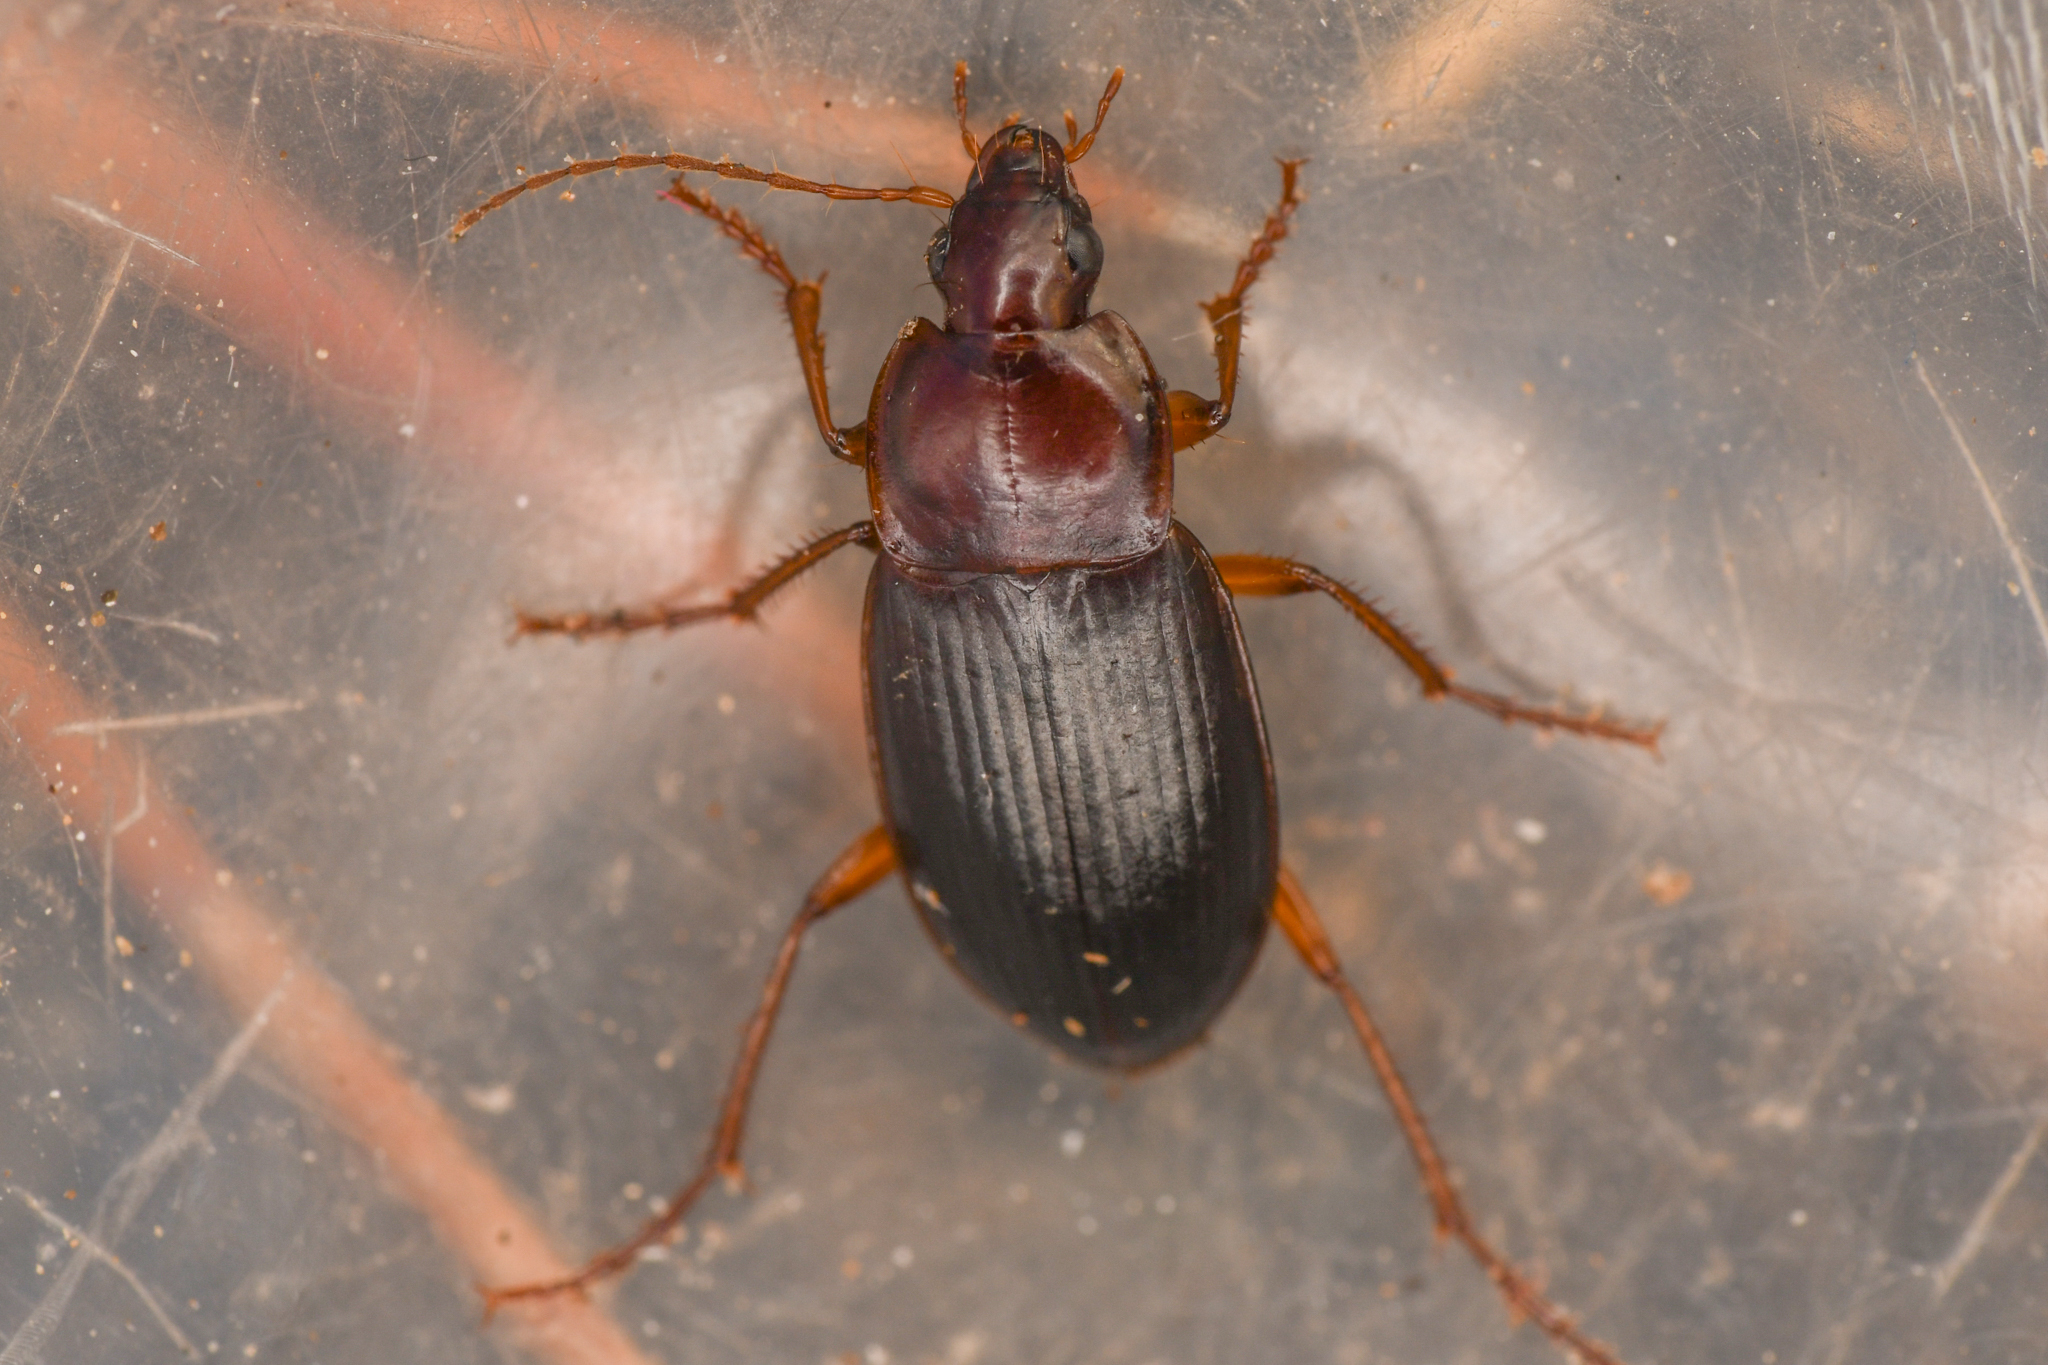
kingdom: Animalia
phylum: Arthropoda
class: Insecta
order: Coleoptera
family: Carabidae
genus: Calathus
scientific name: Calathus ruficollis
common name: Red-collared harp ground beetle
